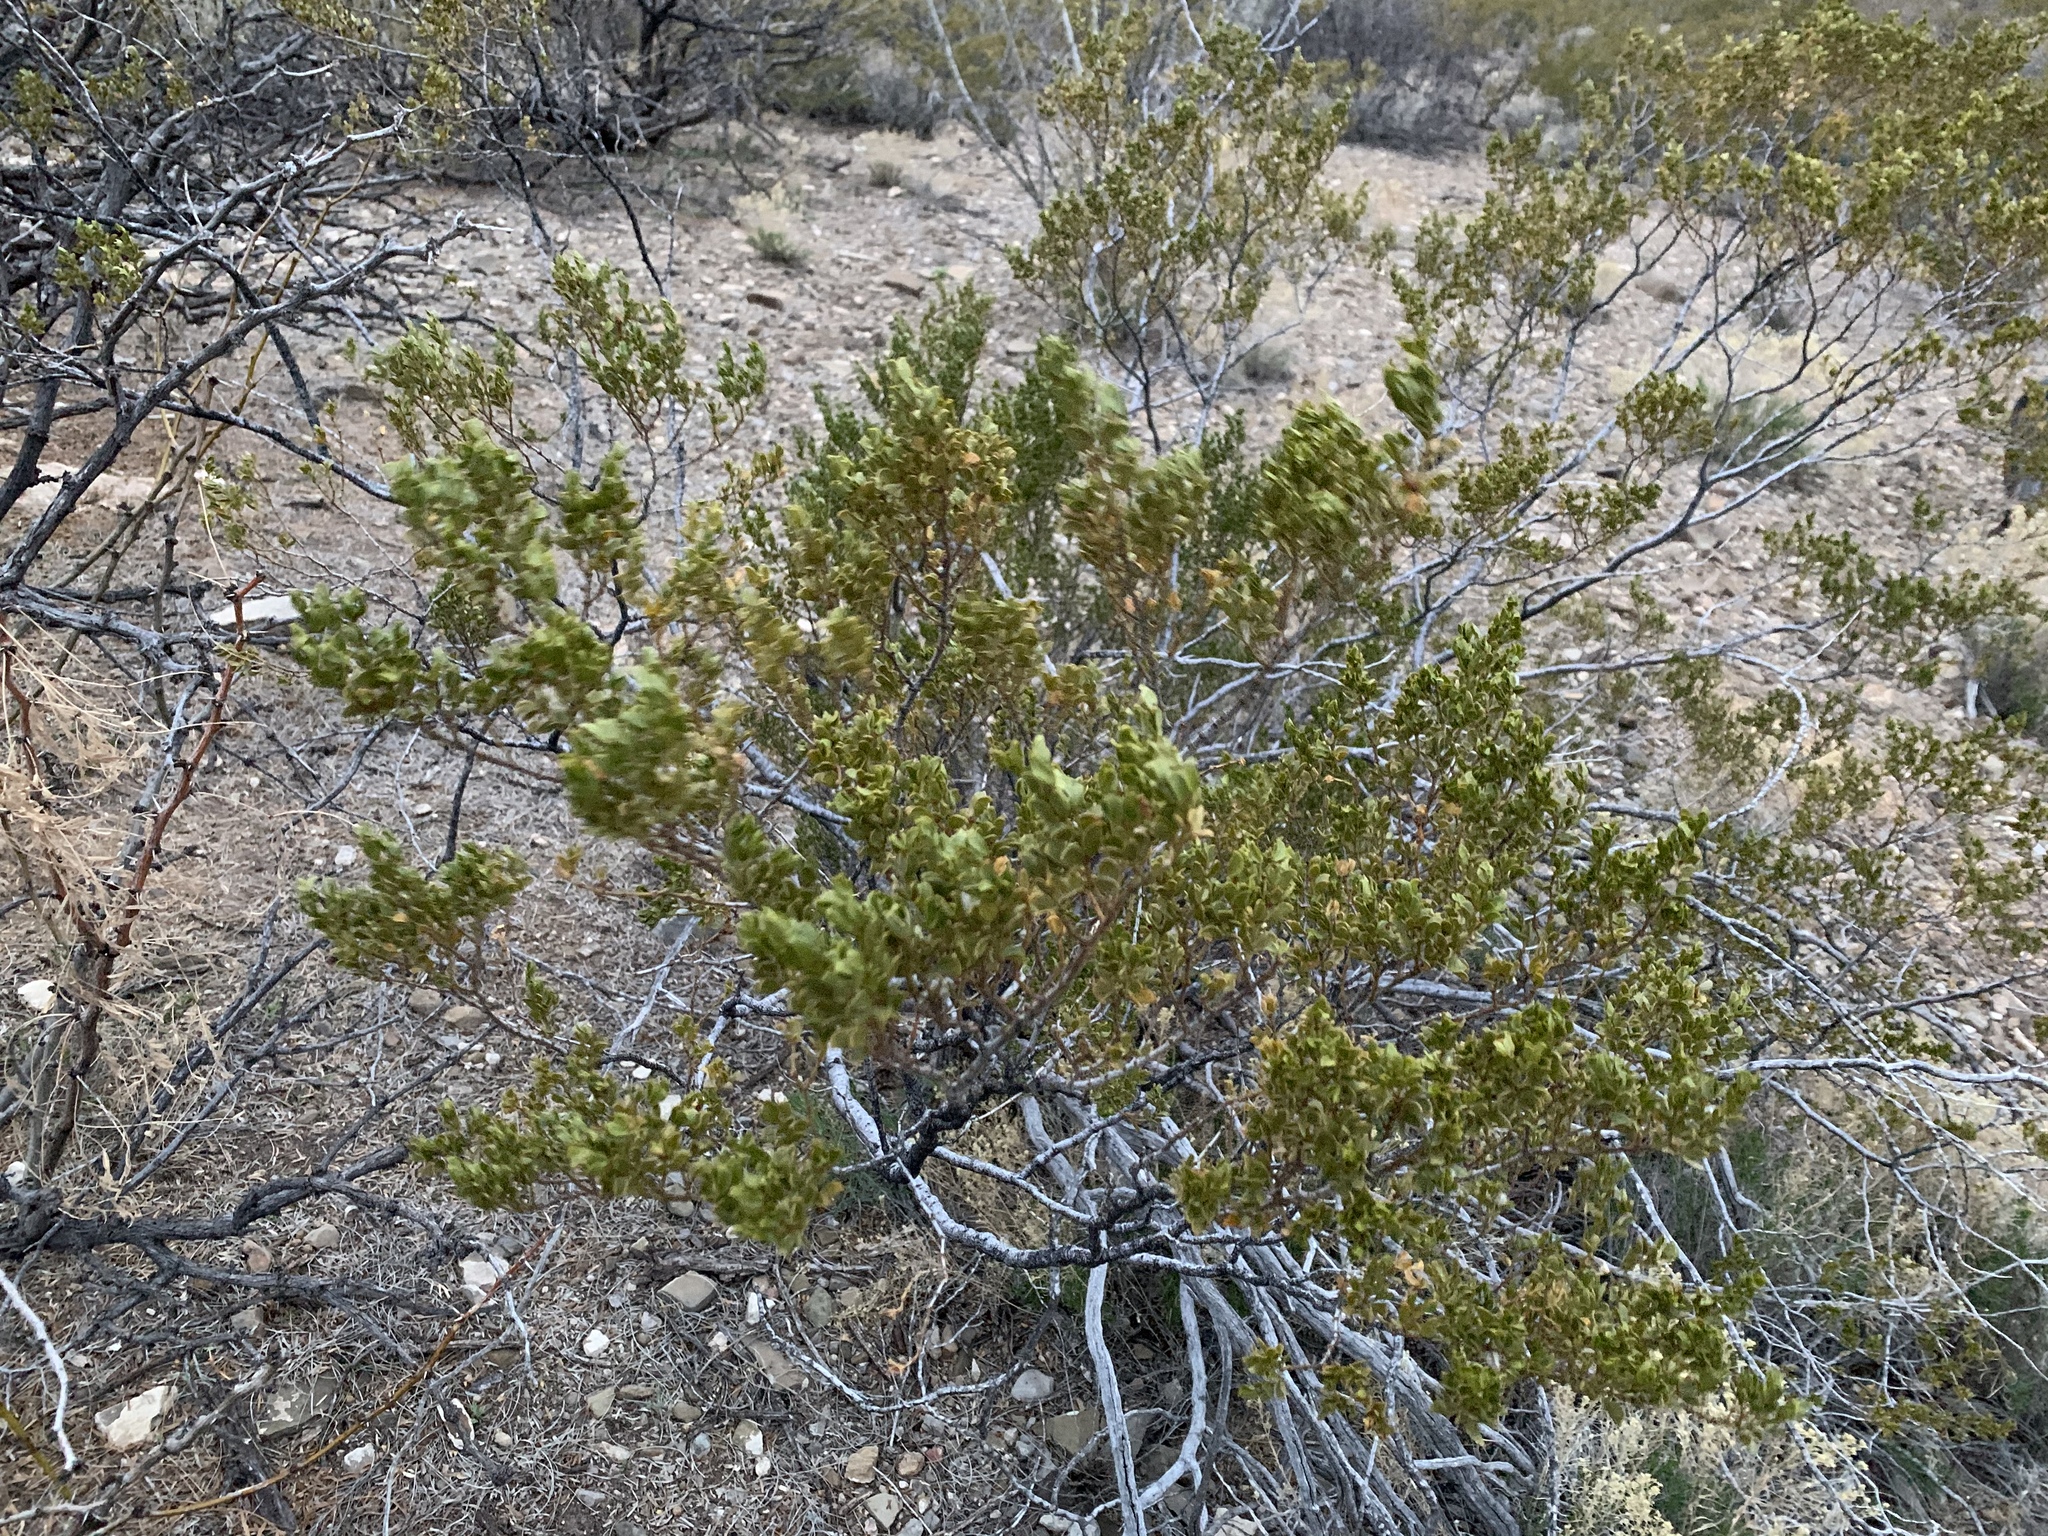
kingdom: Plantae
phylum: Tracheophyta
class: Magnoliopsida
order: Zygophyllales
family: Zygophyllaceae
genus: Larrea
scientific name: Larrea tridentata
